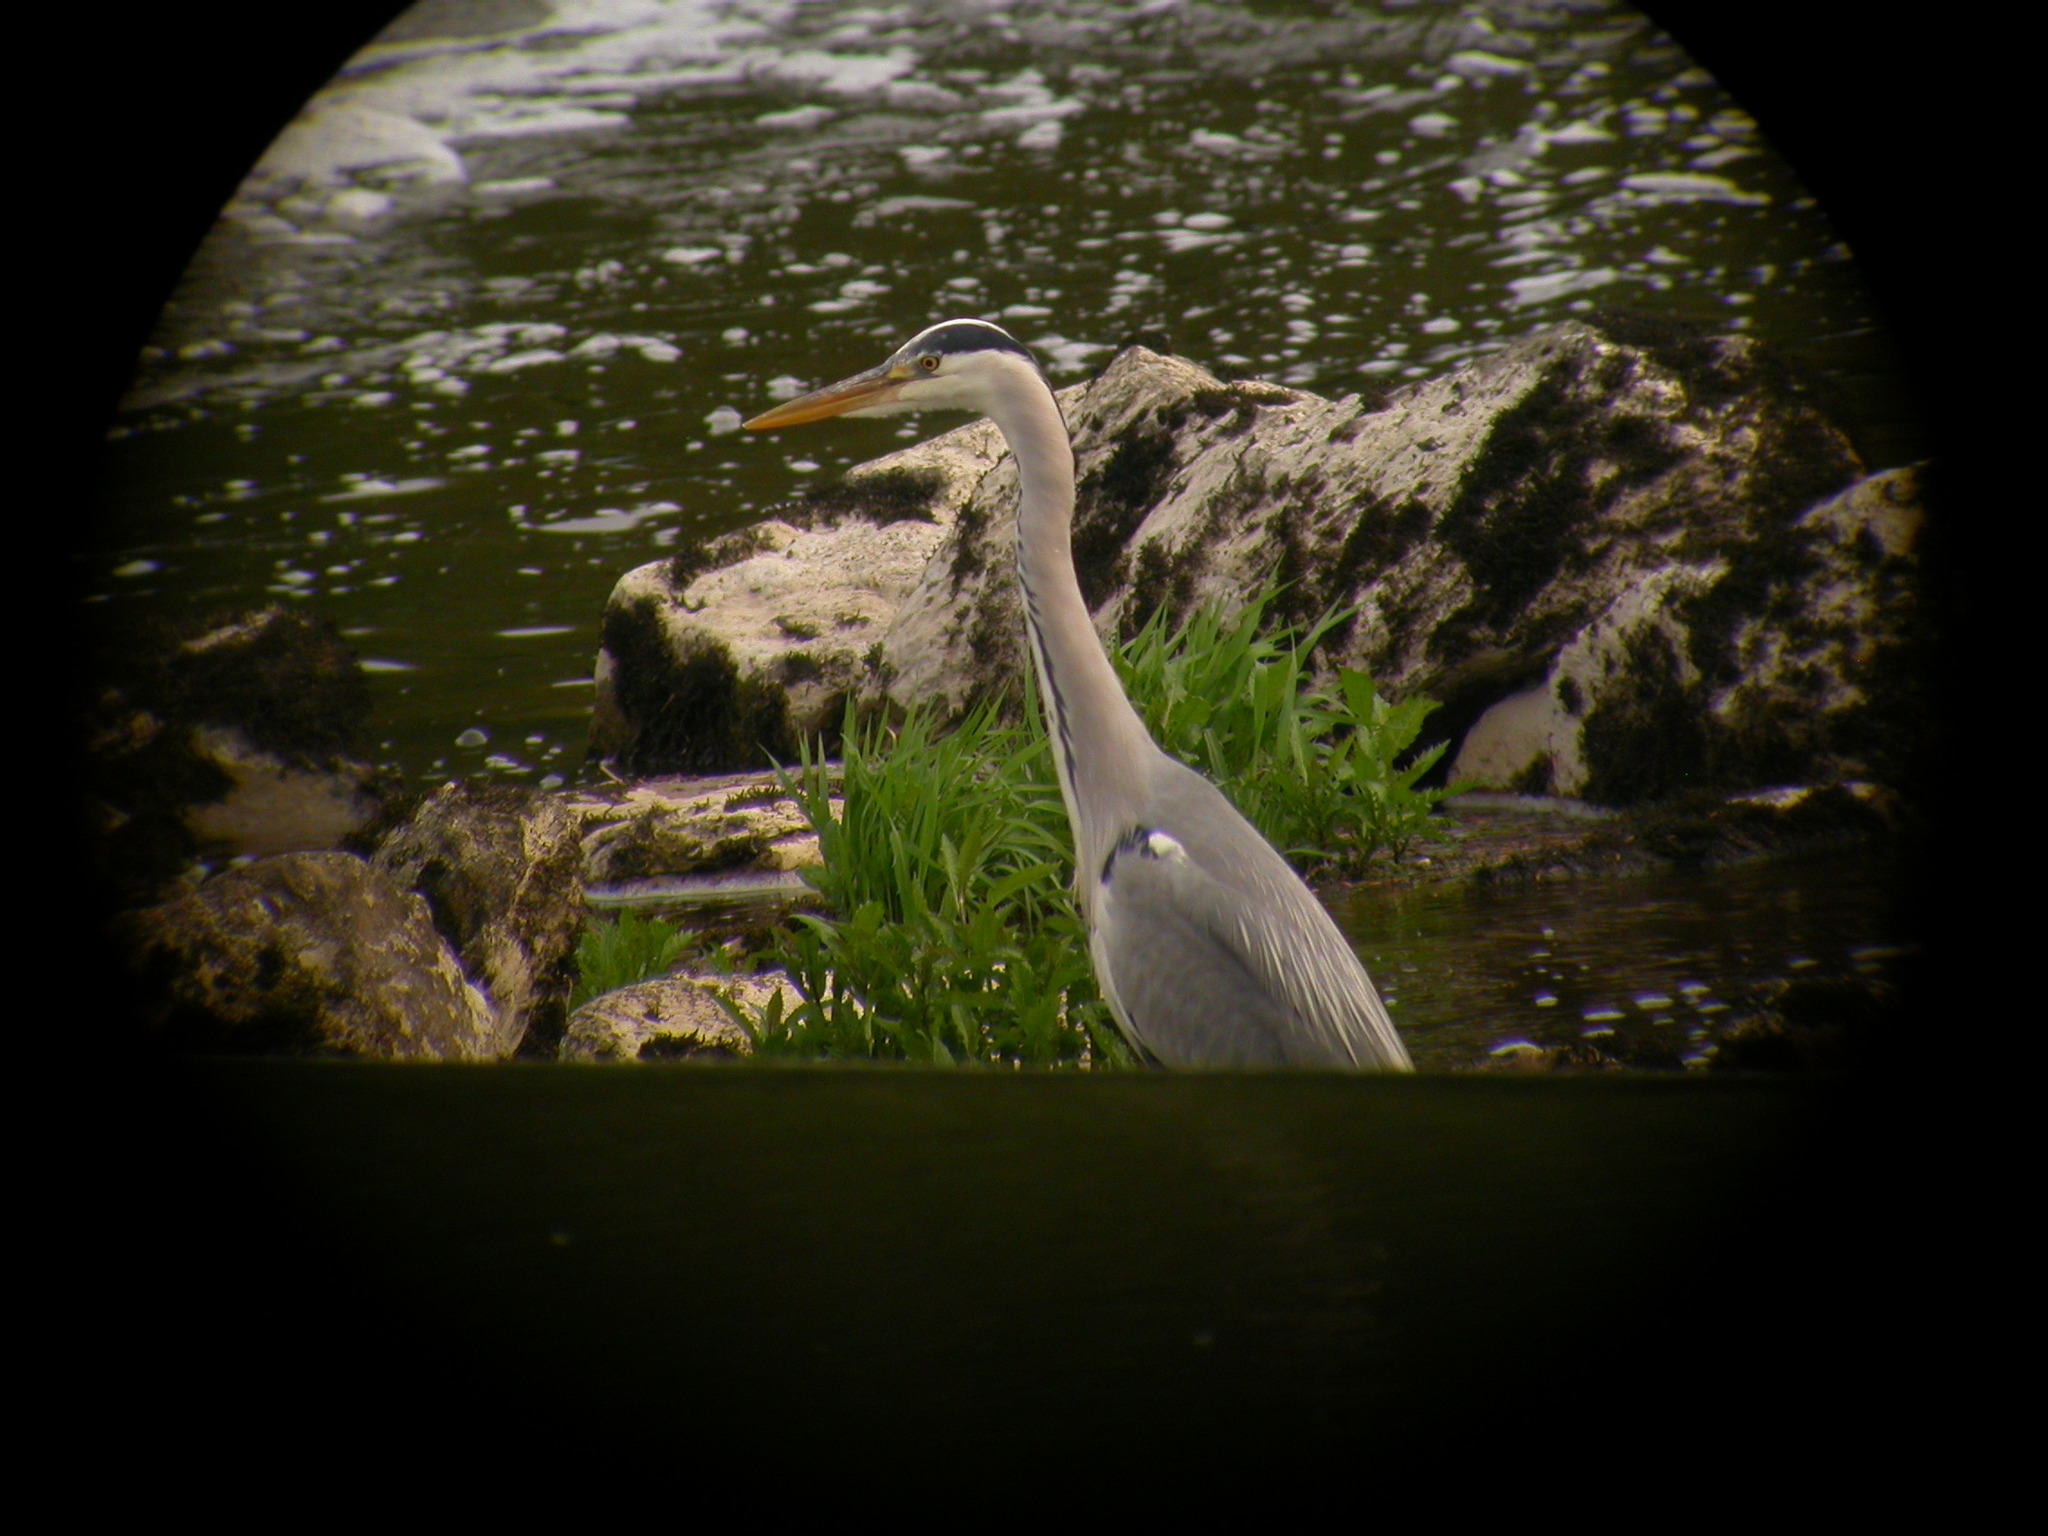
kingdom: Animalia
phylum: Chordata
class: Aves
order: Pelecaniformes
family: Ardeidae
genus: Ardea
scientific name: Ardea cinerea
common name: Grey heron
